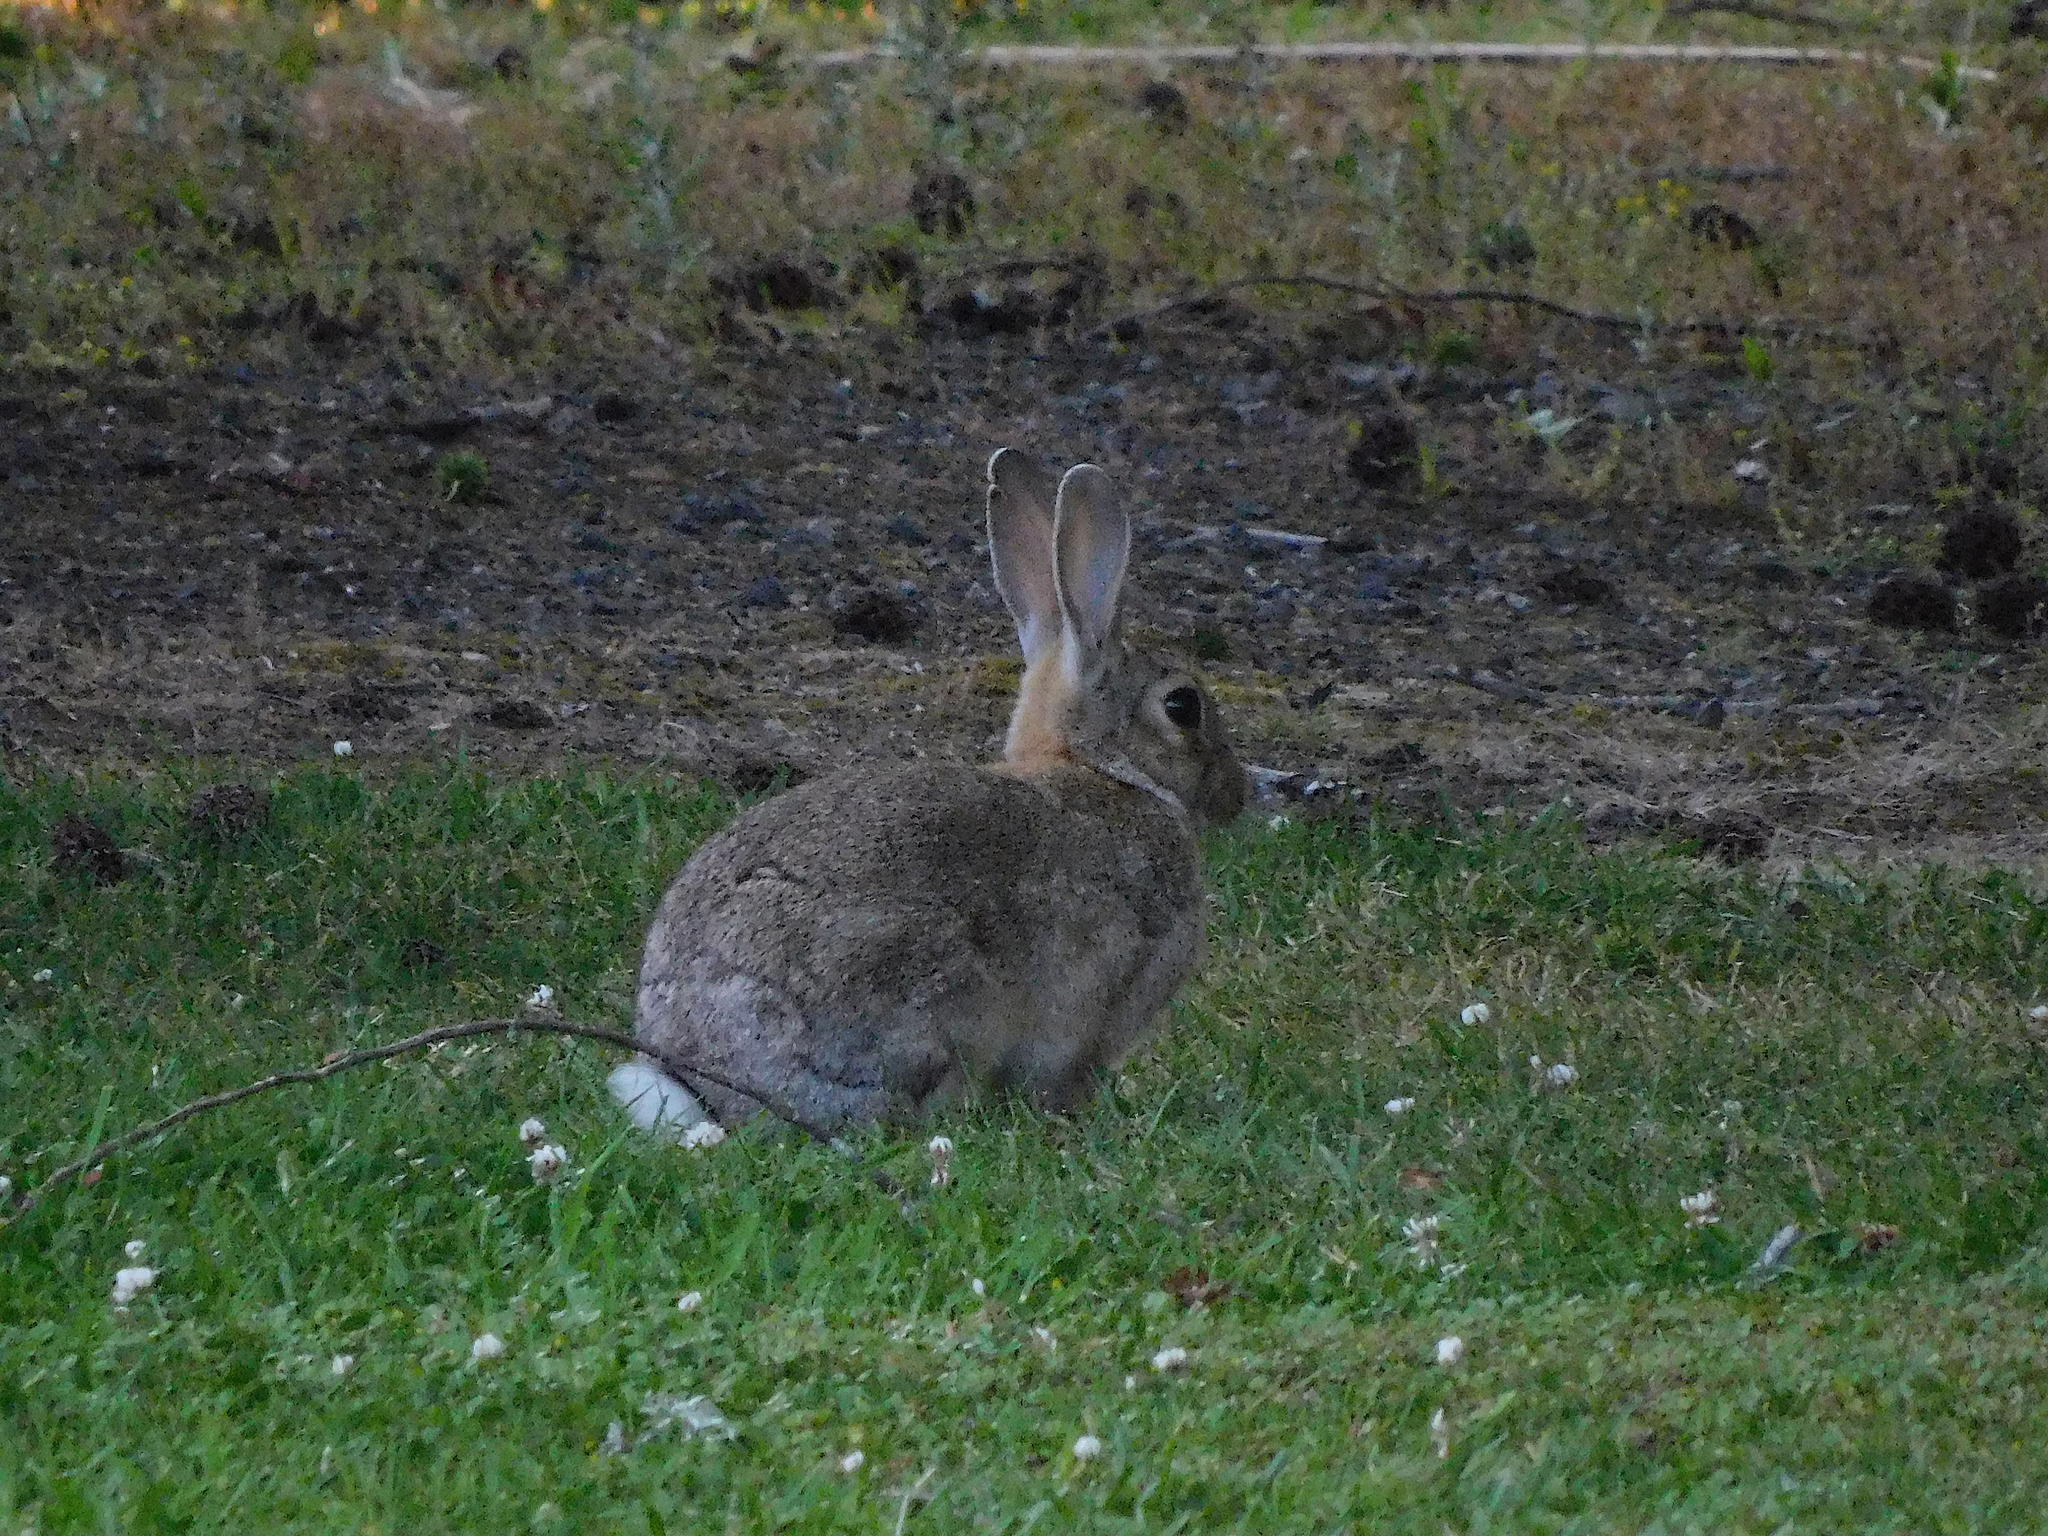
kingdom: Animalia
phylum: Chordata
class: Mammalia
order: Lagomorpha
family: Leporidae
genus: Oryctolagus
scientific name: Oryctolagus cuniculus
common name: European rabbit
